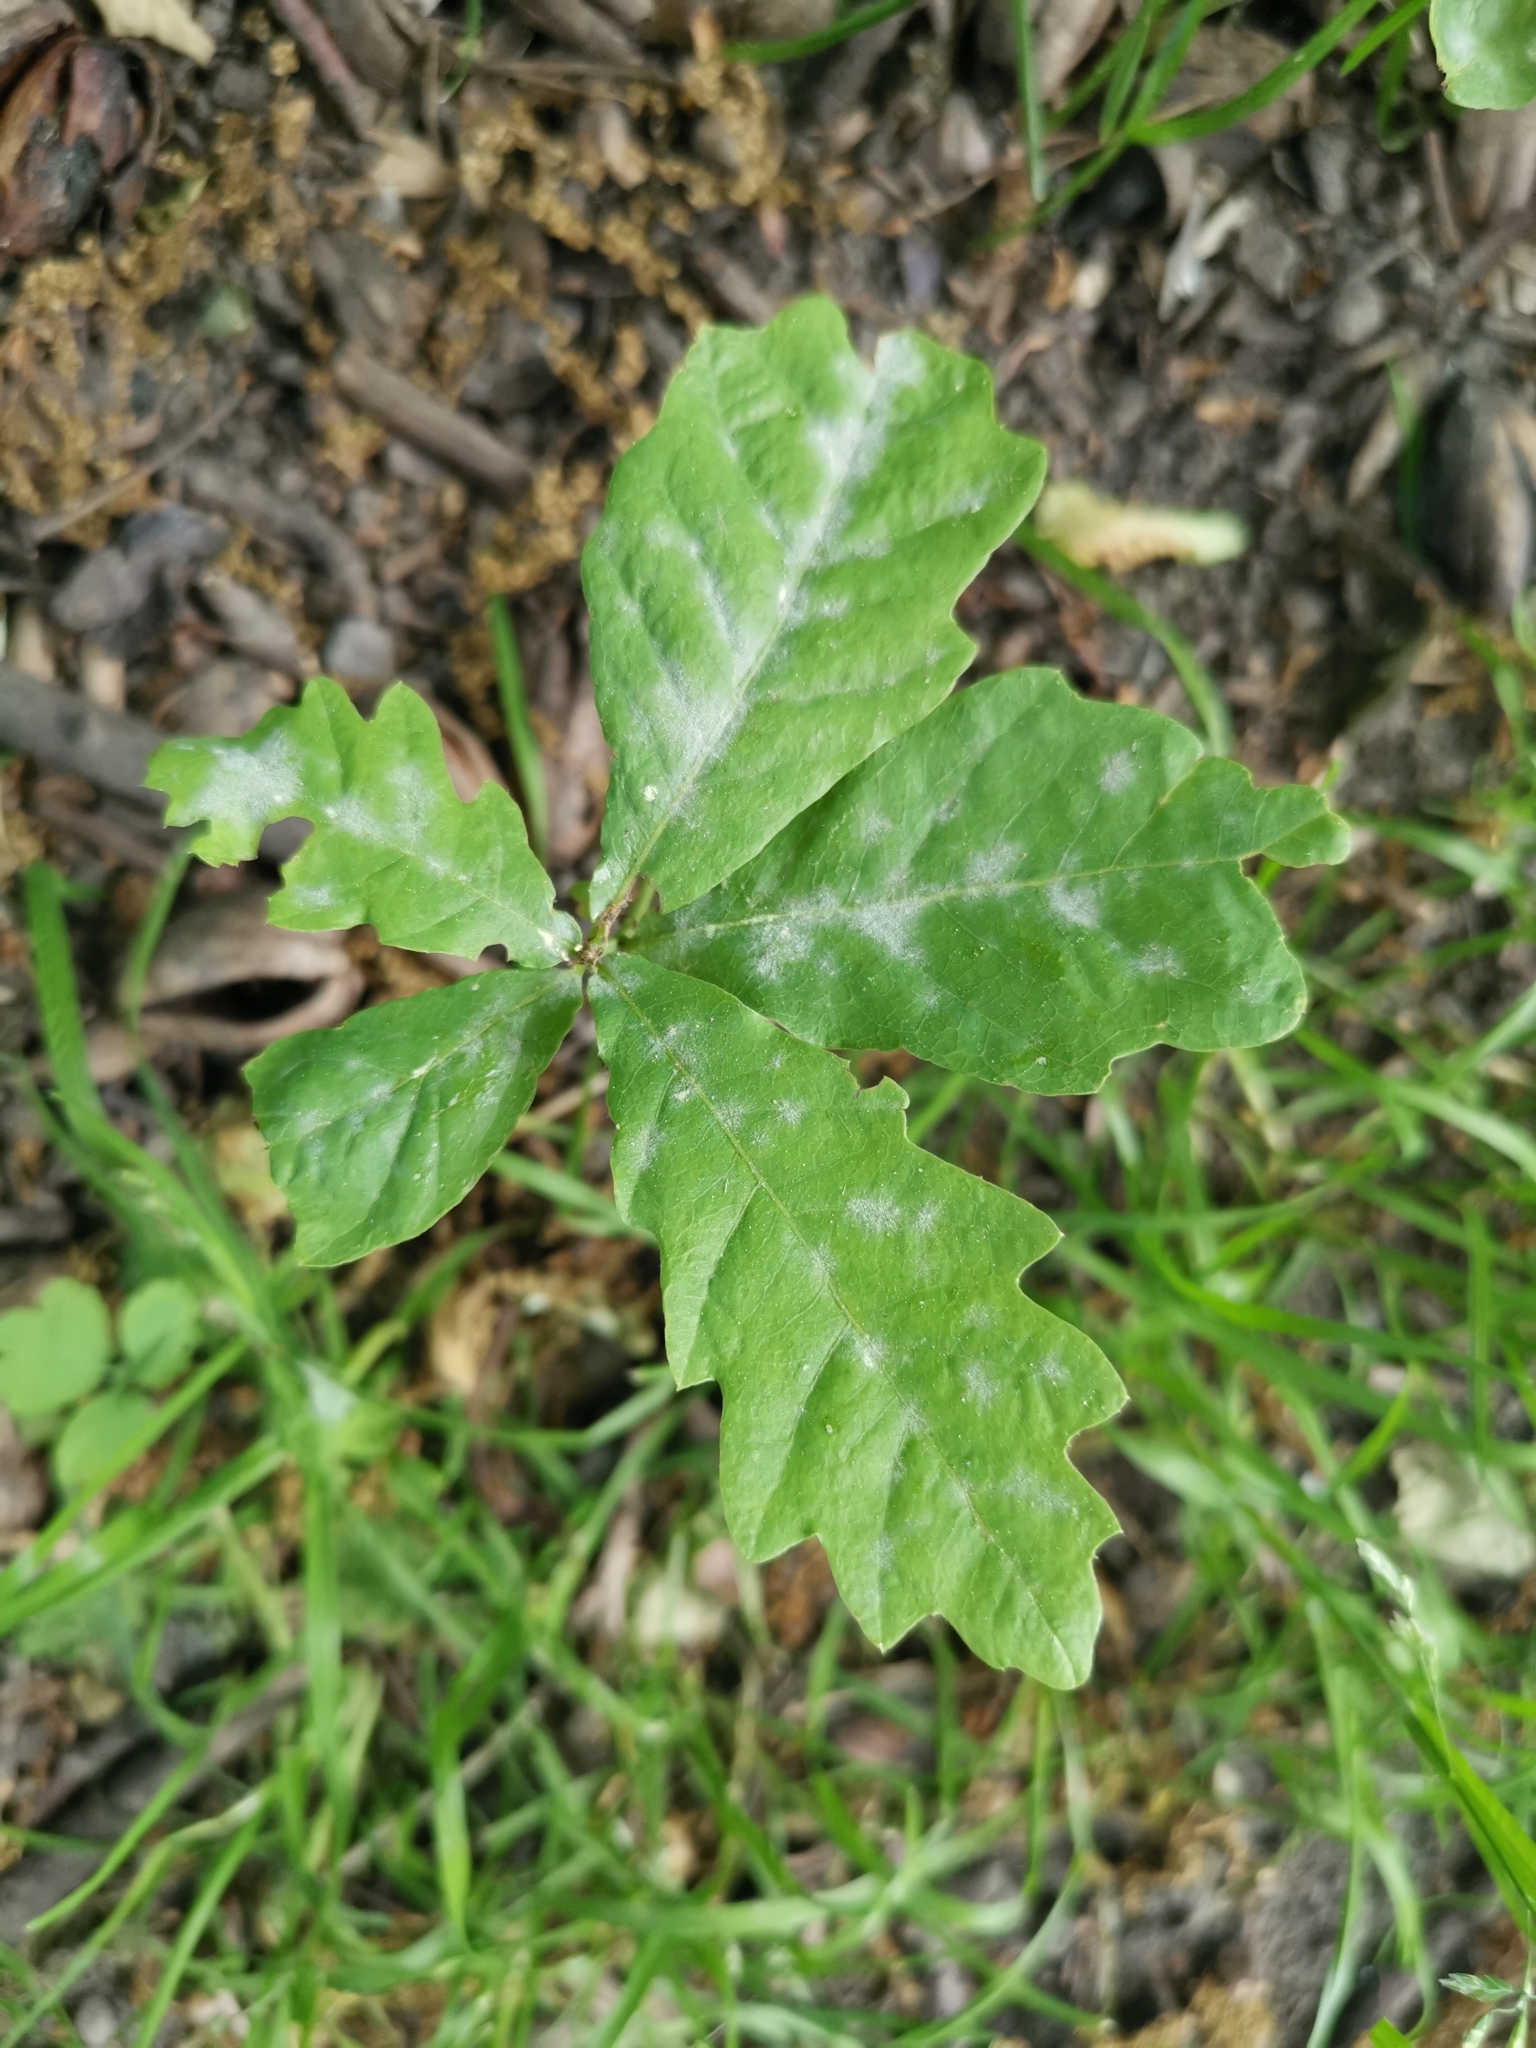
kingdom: Fungi
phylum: Ascomycota
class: Leotiomycetes
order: Helotiales
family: Erysiphaceae
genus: Erysiphe
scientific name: Erysiphe
